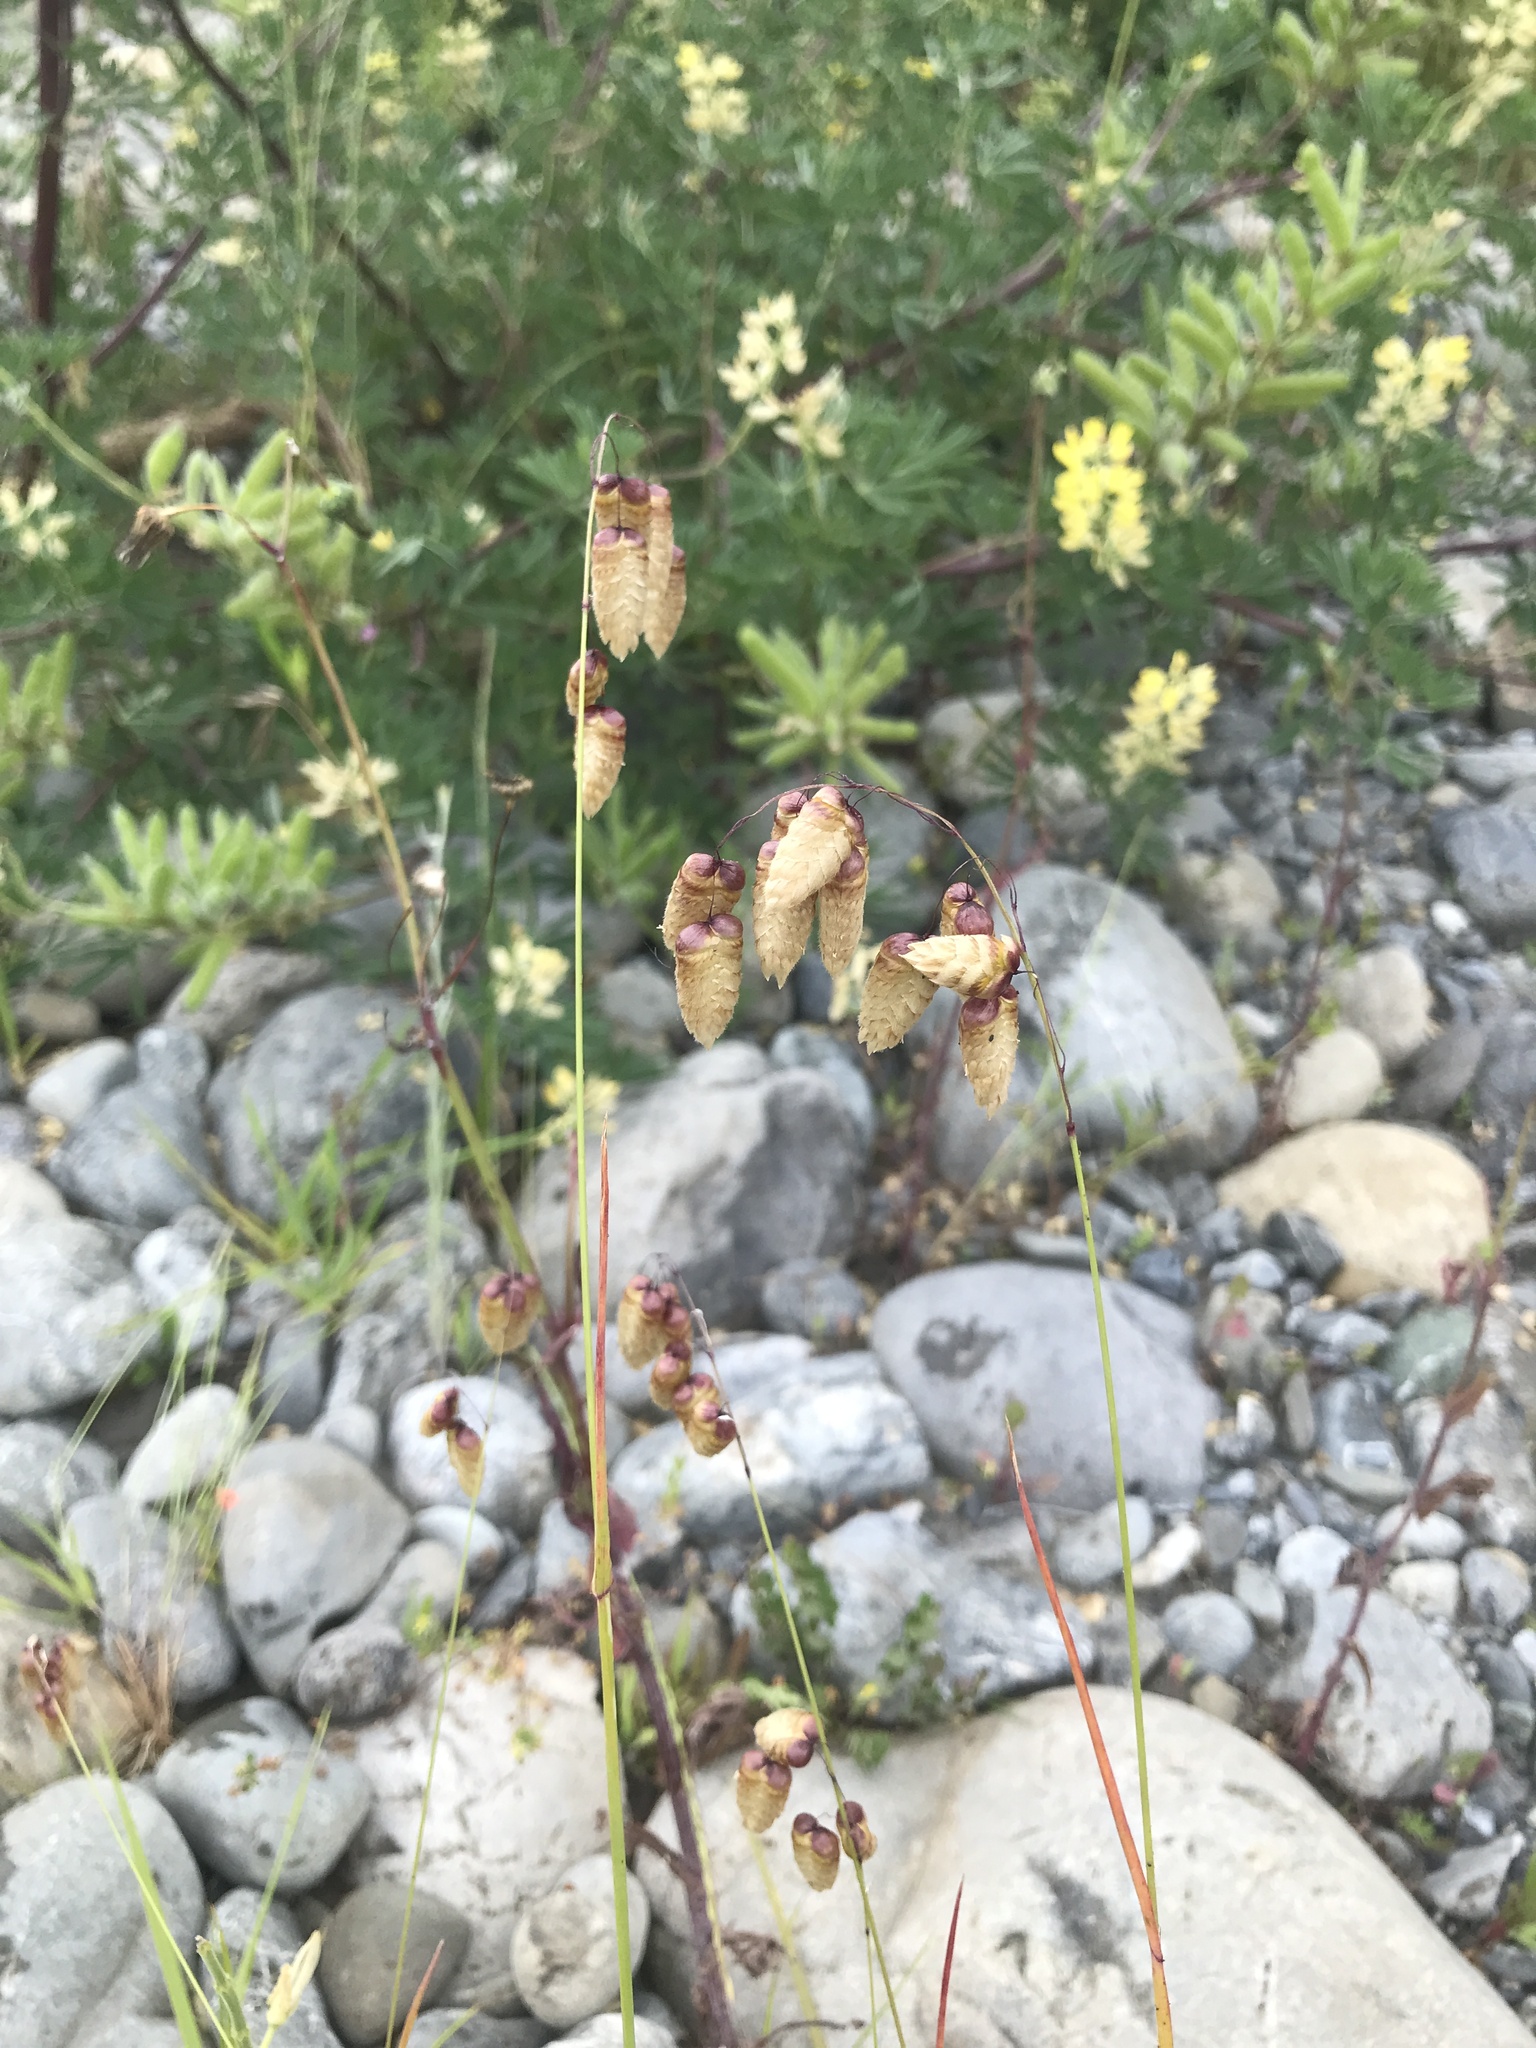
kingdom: Plantae
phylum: Tracheophyta
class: Liliopsida
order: Poales
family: Poaceae
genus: Briza
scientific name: Briza maxima
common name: Big quakinggrass
